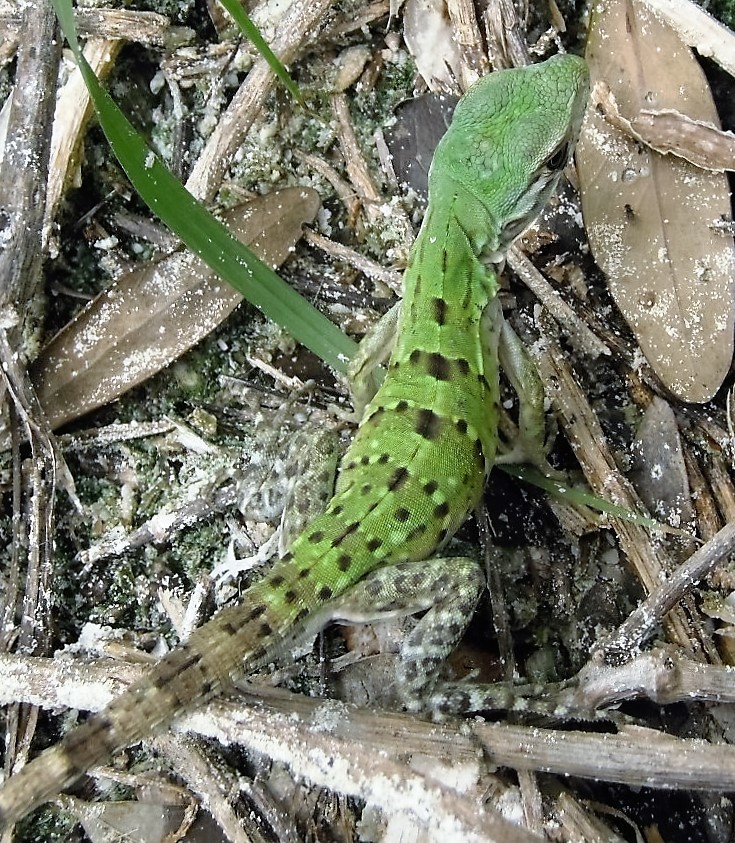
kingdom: Animalia
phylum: Chordata
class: Squamata
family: Iguanidae
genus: Ctenosaura
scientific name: Ctenosaura similis
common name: Black spiny-tailed iguana
